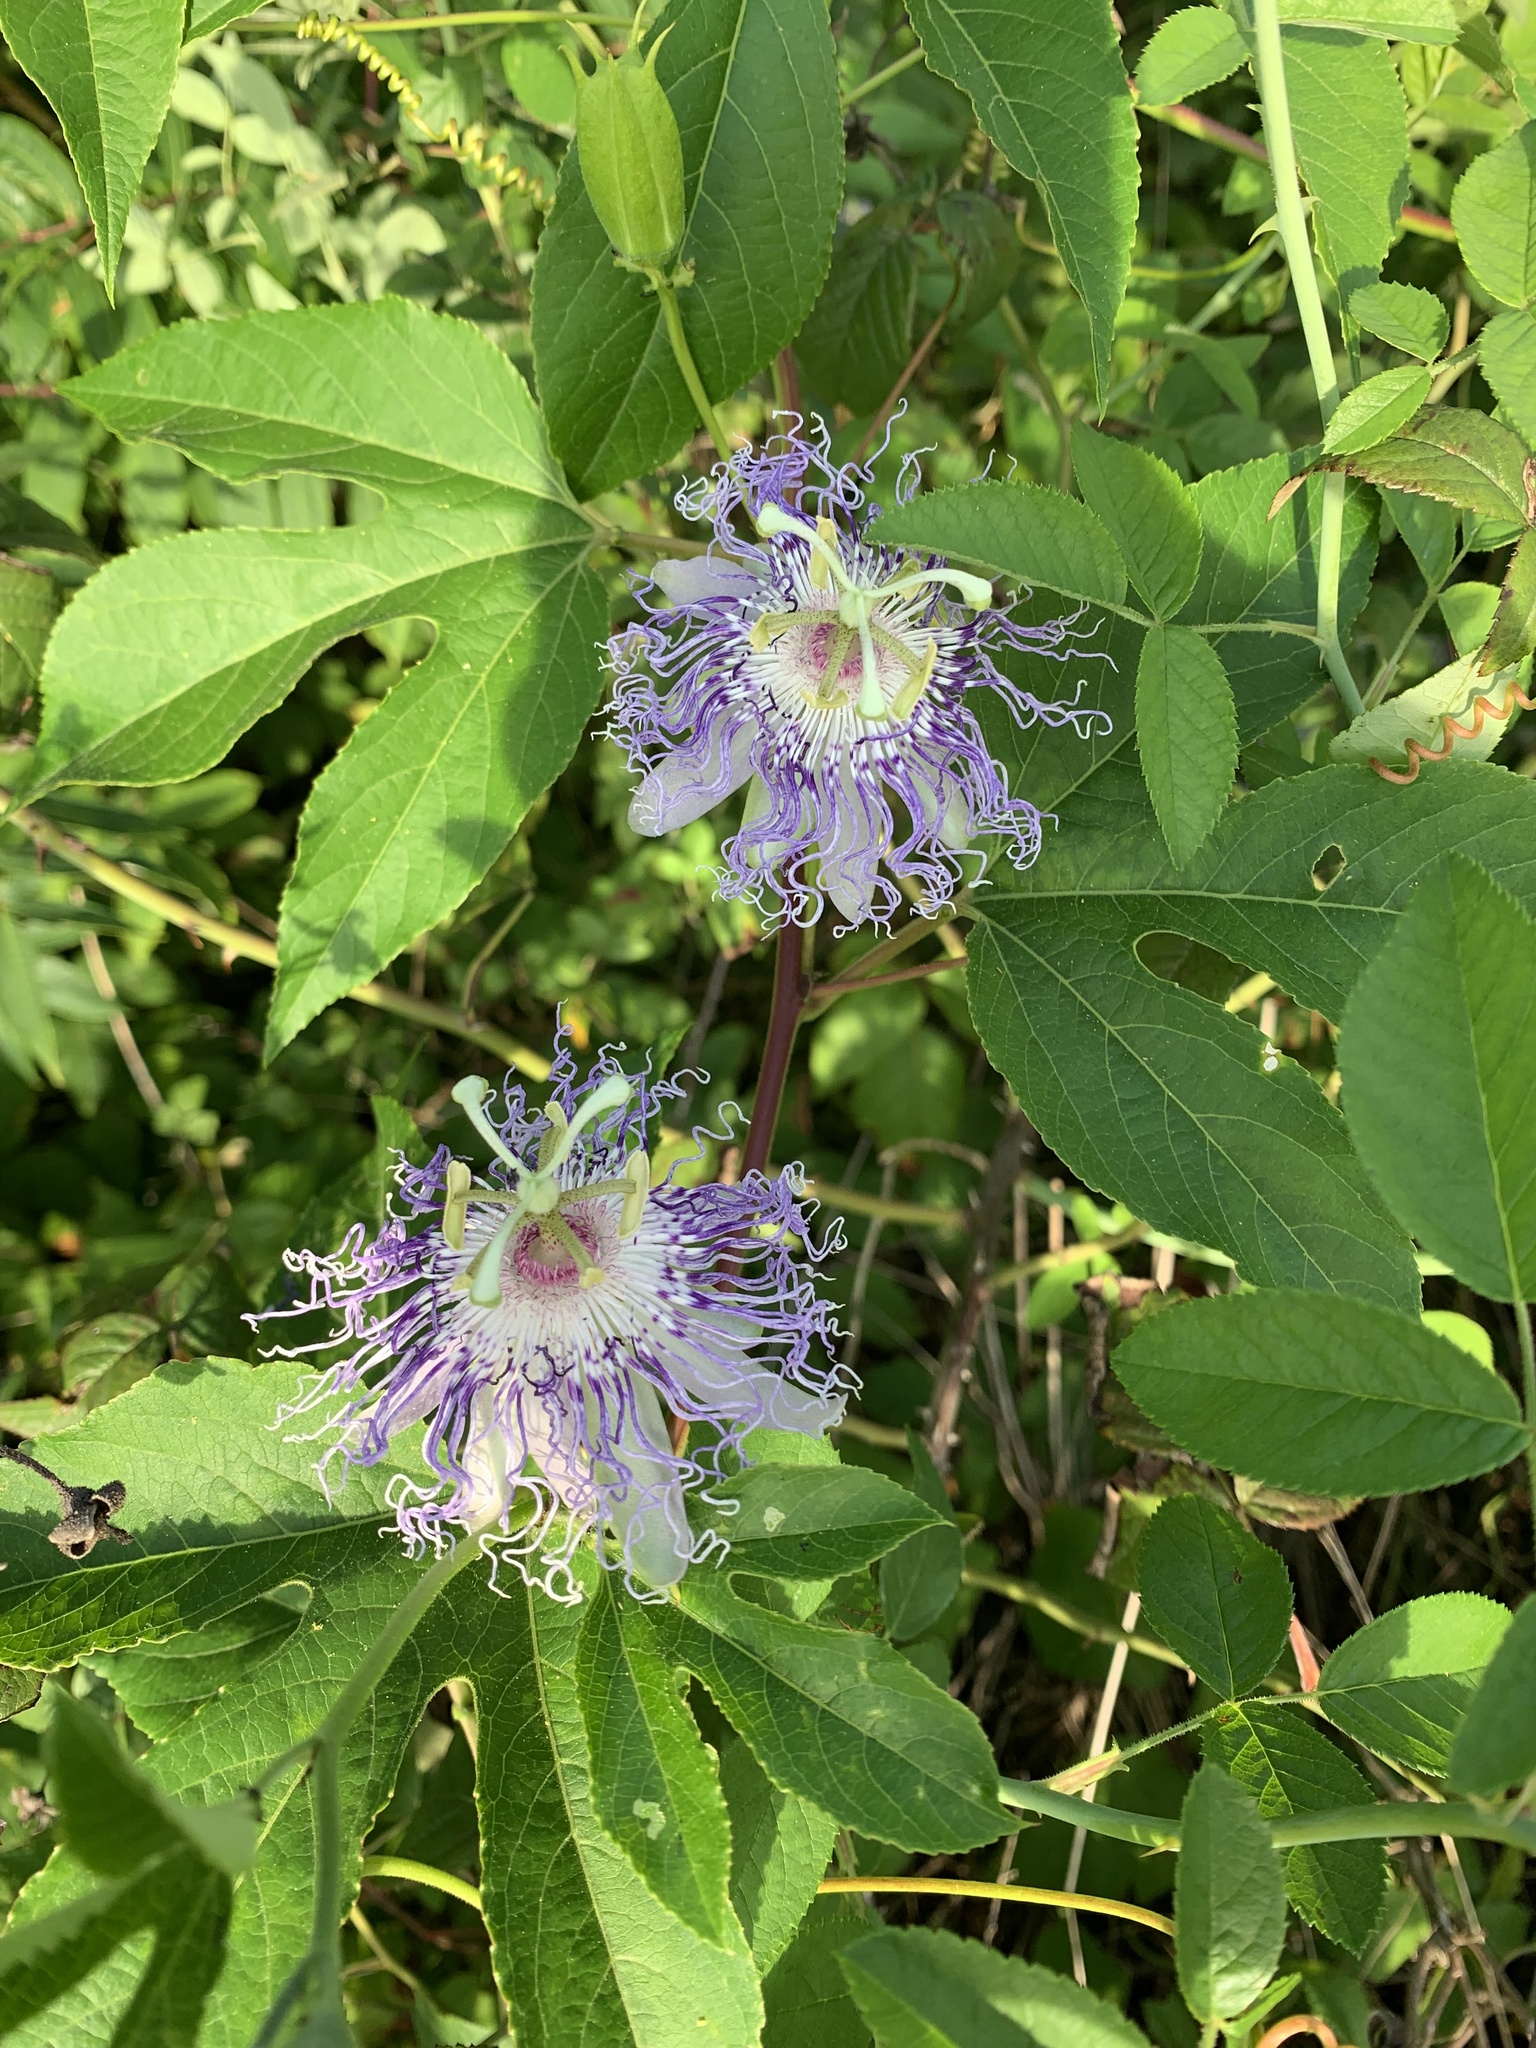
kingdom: Plantae
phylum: Tracheophyta
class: Magnoliopsida
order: Malpighiales
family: Passifloraceae
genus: Passiflora
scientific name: Passiflora incarnata
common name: Apricot-vine
